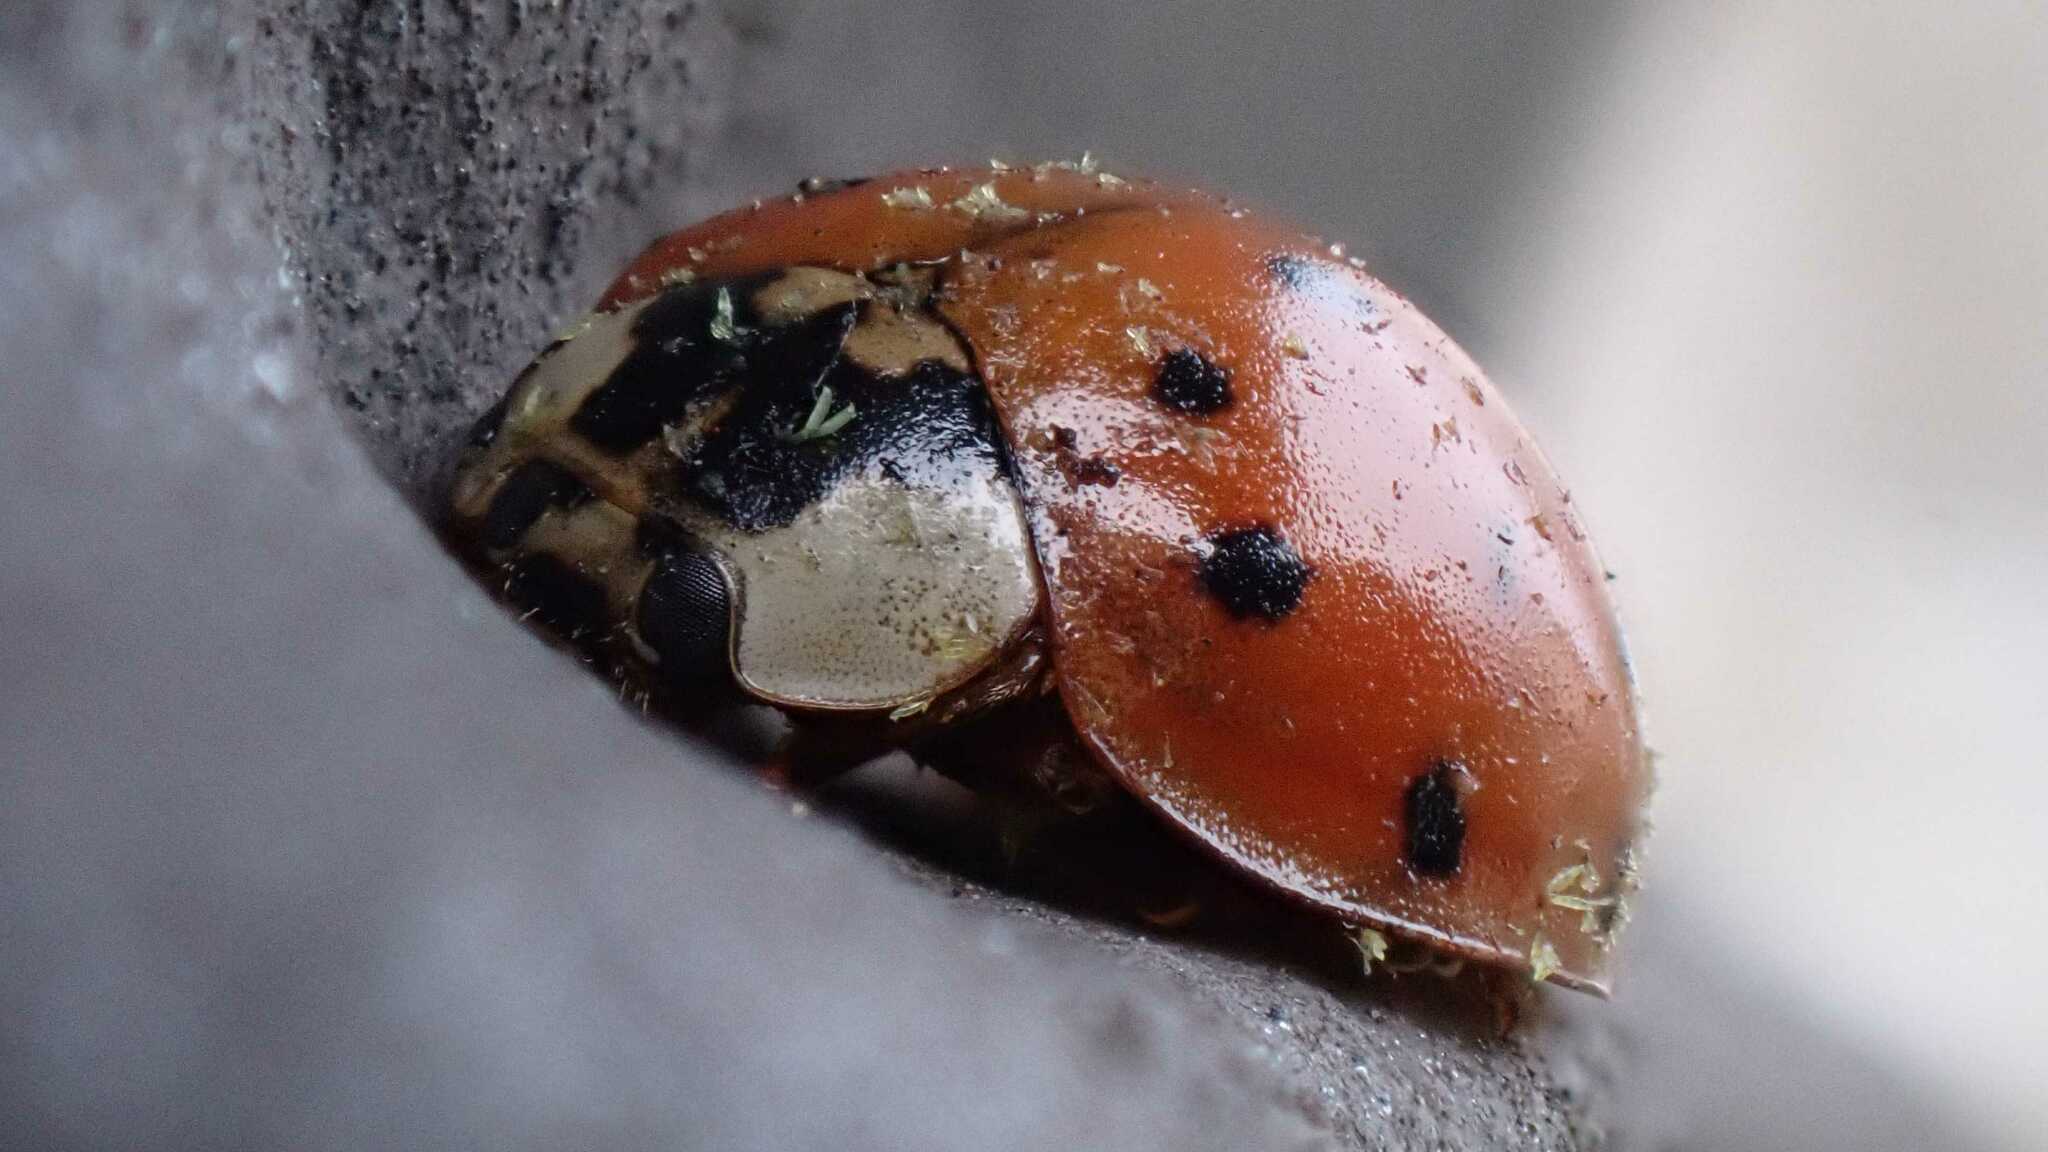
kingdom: Fungi
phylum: Ascomycota
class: Laboulbeniomycetes
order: Laboulbeniales
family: Laboulbeniaceae
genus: Hesperomyces
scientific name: Hesperomyces harmoniae
